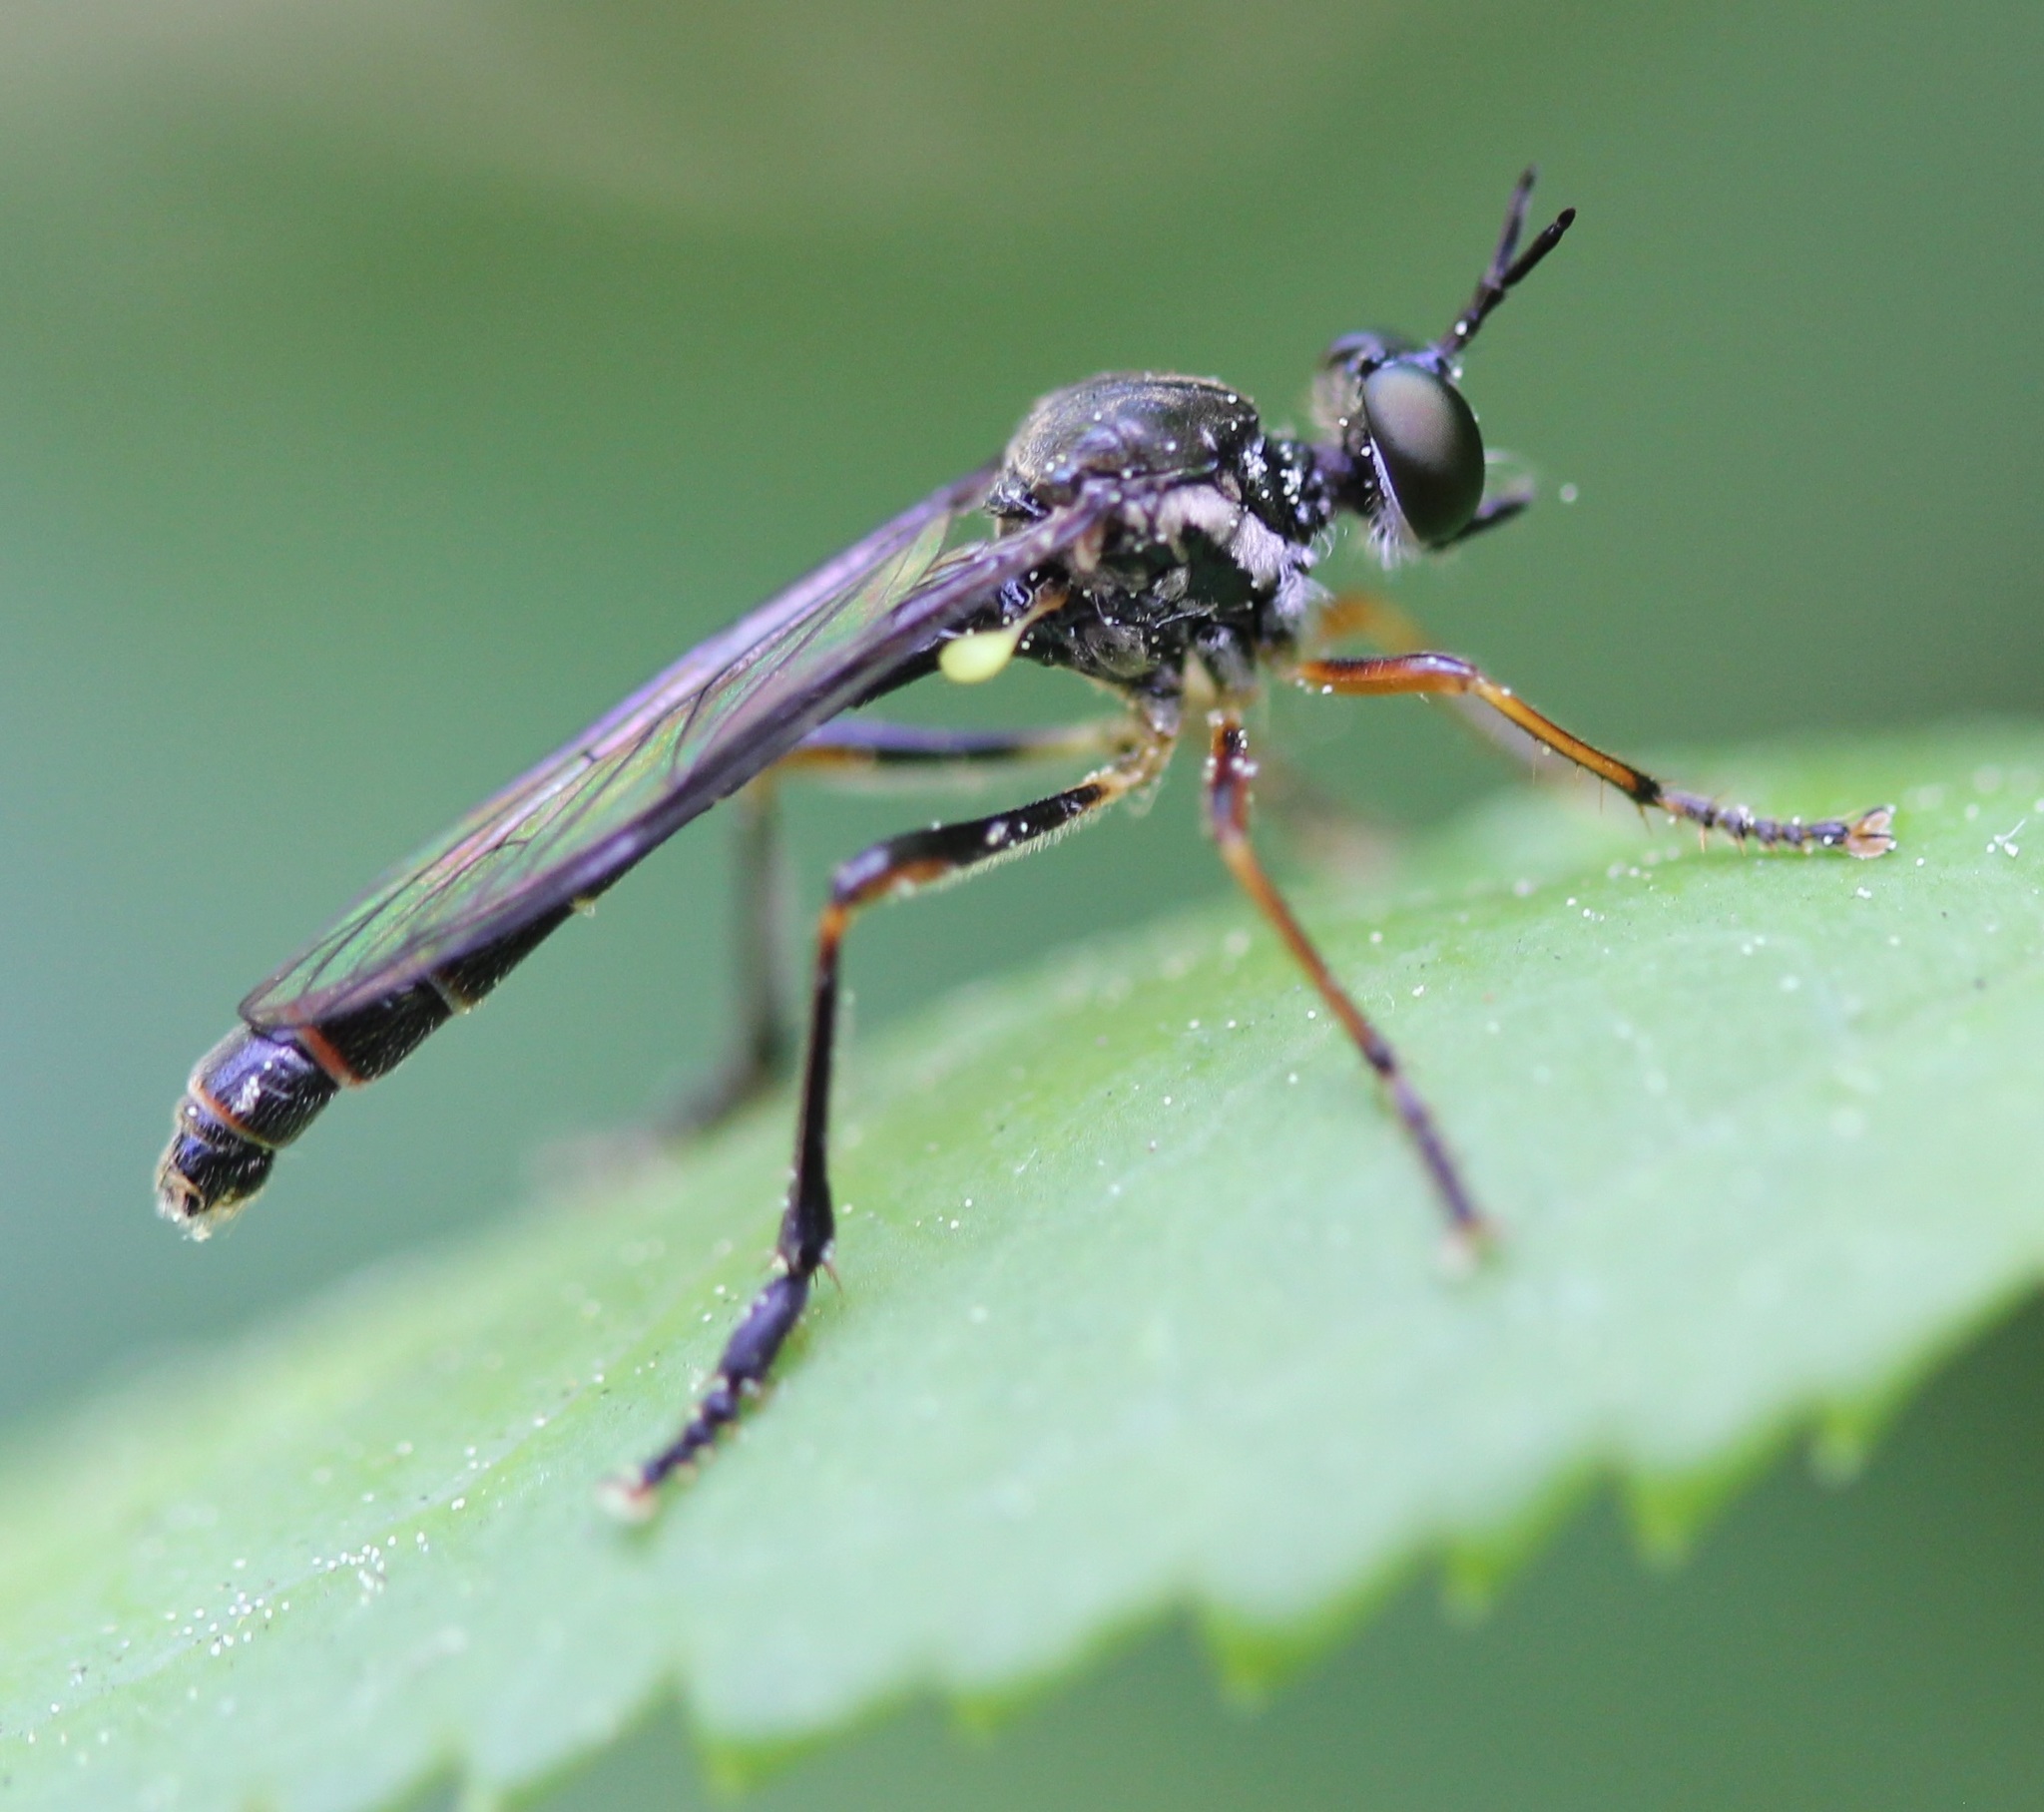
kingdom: Animalia
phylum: Arthropoda
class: Insecta
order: Diptera
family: Asilidae
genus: Dioctria
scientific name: Dioctria hyalipennis
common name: Stripe-legged robberfly
